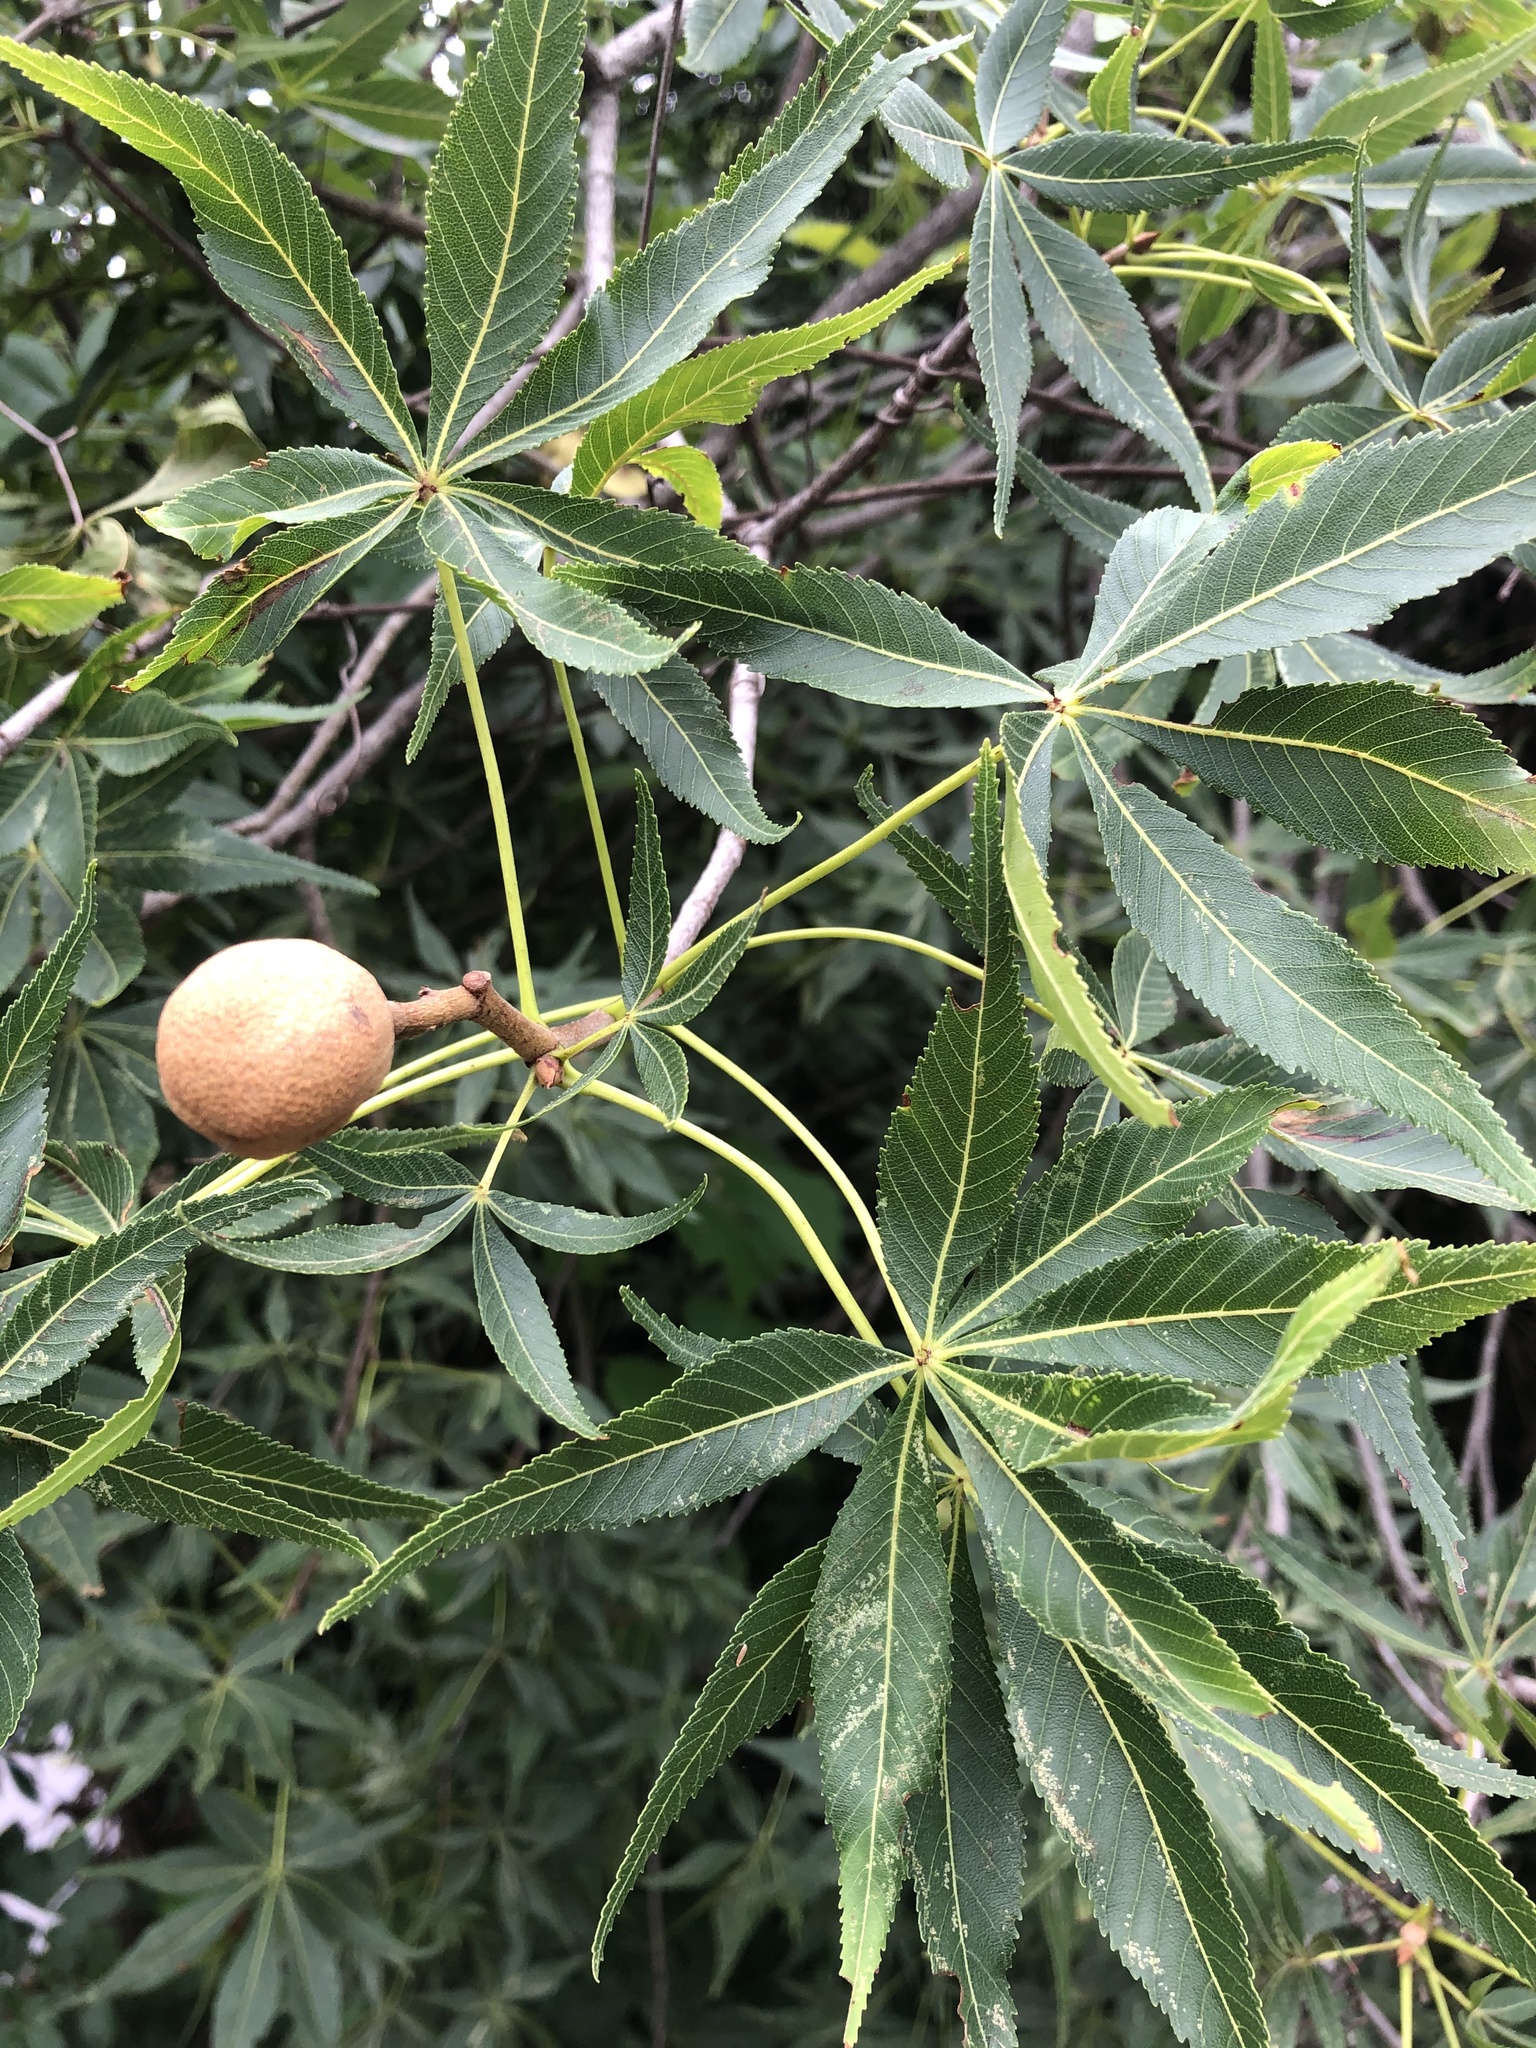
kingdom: Plantae
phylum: Tracheophyta
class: Magnoliopsida
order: Sapindales
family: Sapindaceae
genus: Aesculus
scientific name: Aesculus glabra
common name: Ohio buckeye
